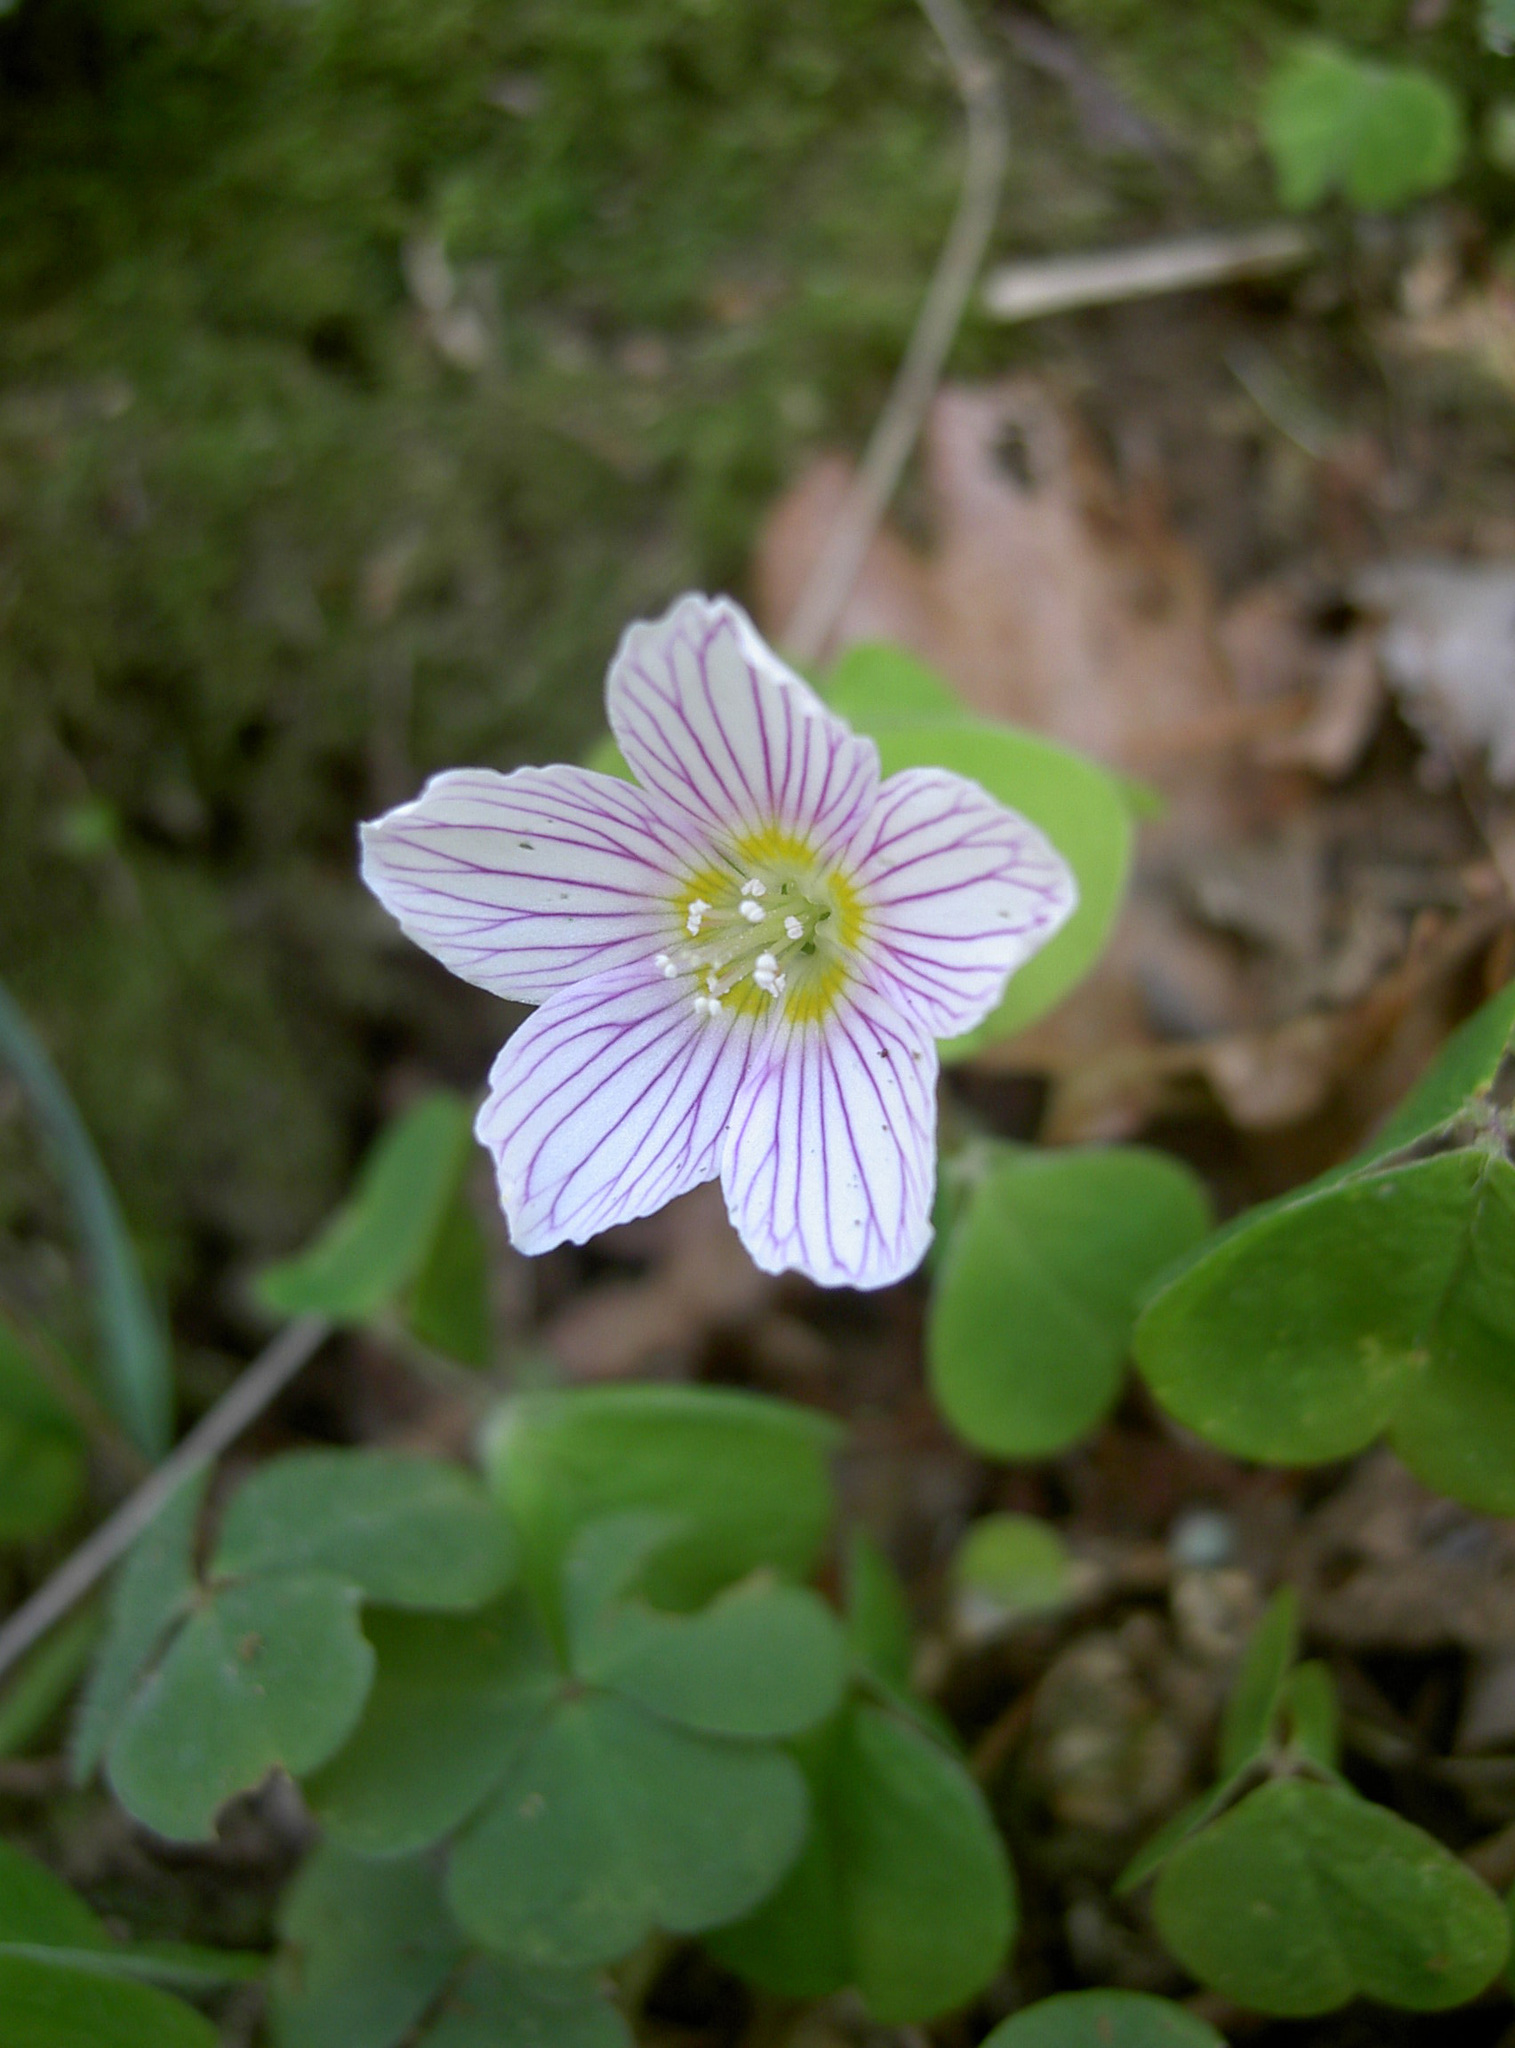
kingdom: Plantae
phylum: Tracheophyta
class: Magnoliopsida
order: Oxalidales
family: Oxalidaceae
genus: Oxalis
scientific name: Oxalis acetosella
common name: Wood-sorrel
